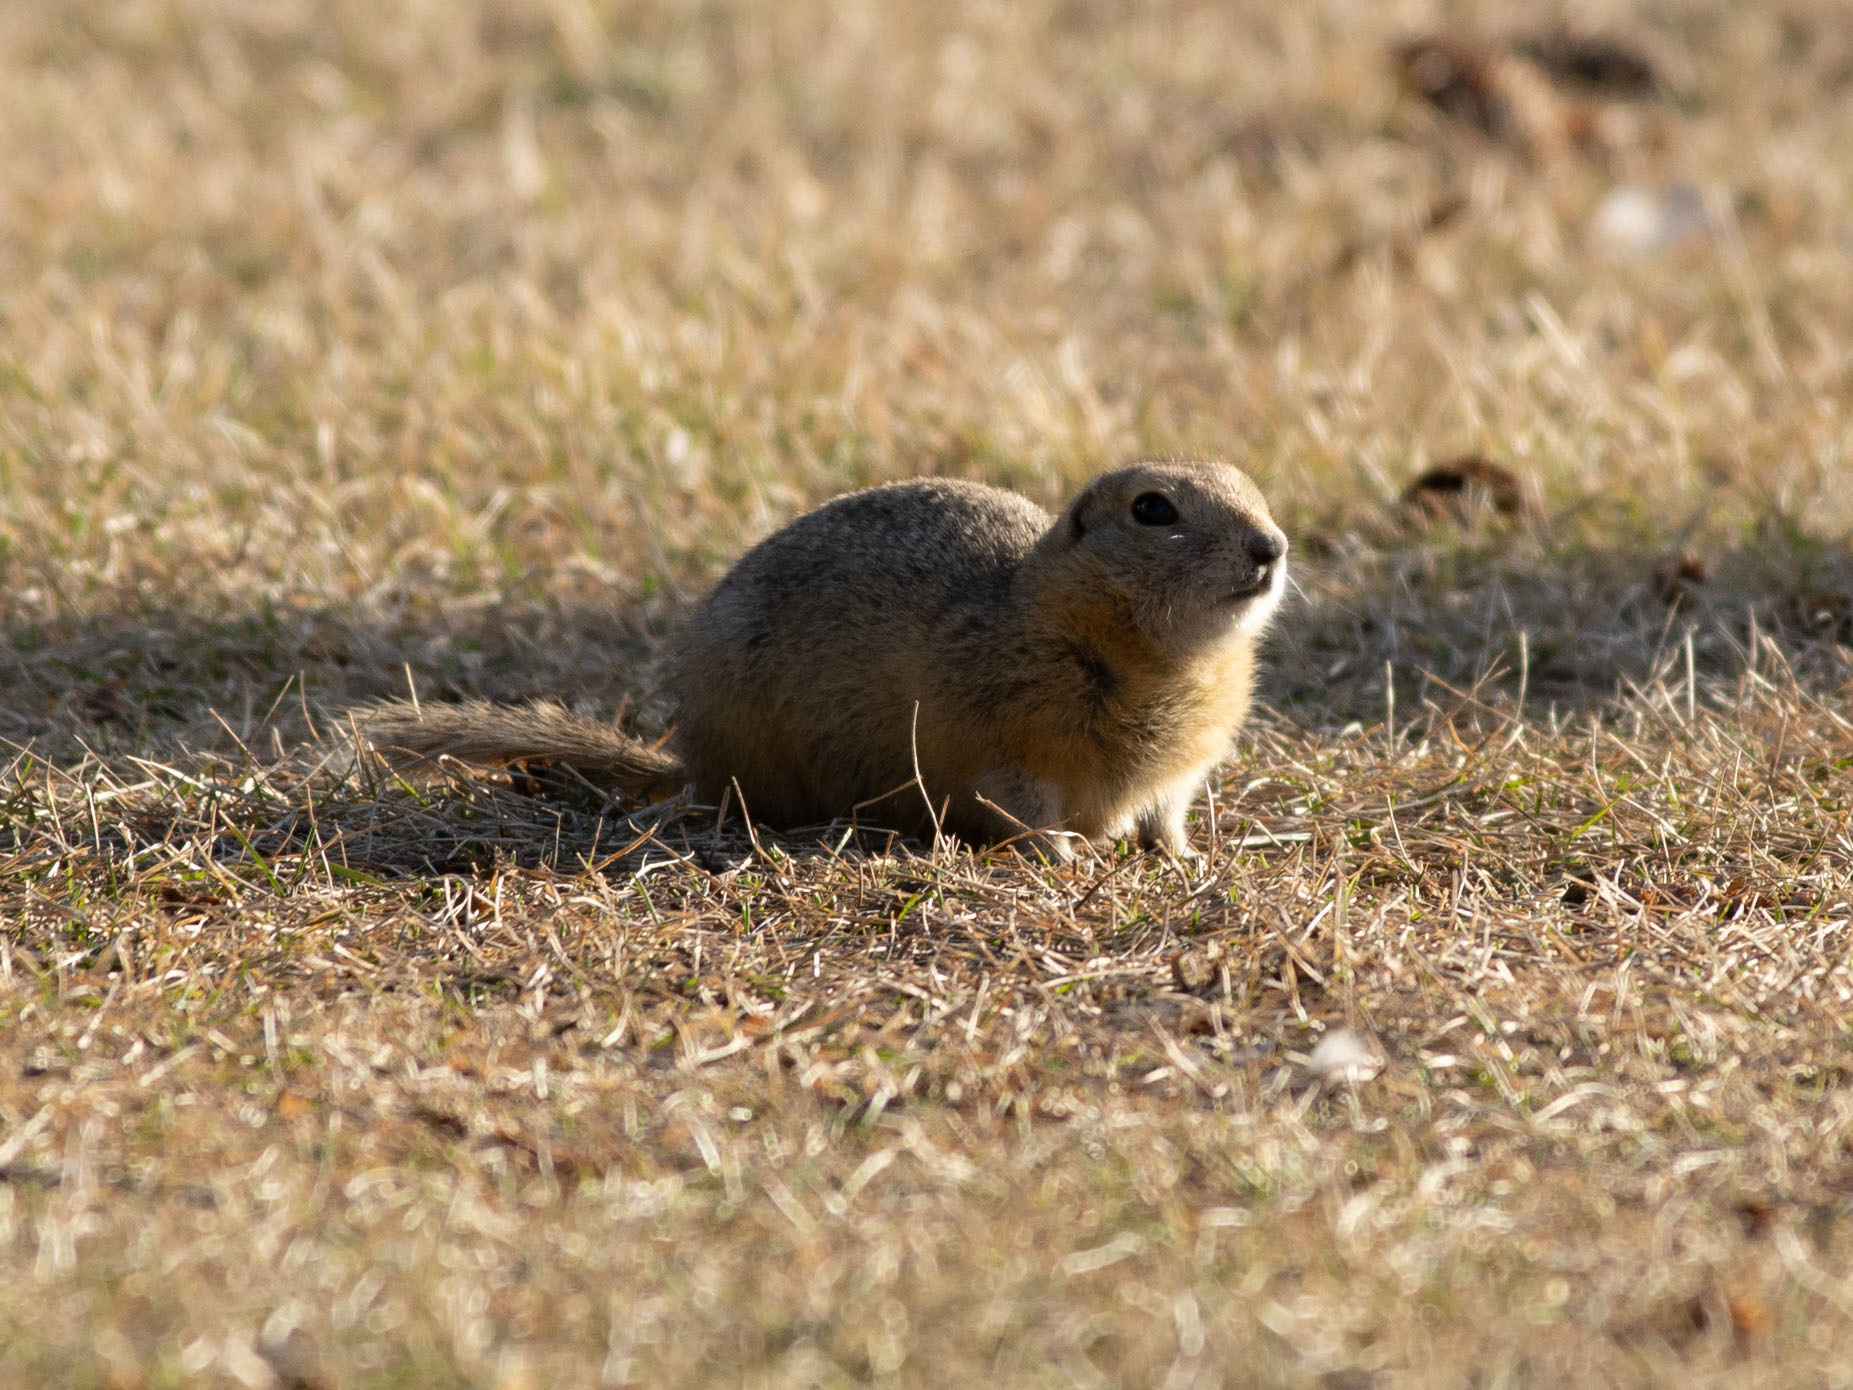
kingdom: Animalia
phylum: Chordata
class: Mammalia
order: Rodentia
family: Sciuridae
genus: Urocitellus
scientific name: Urocitellus richardsonii
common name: Richardson's ground squirrel
